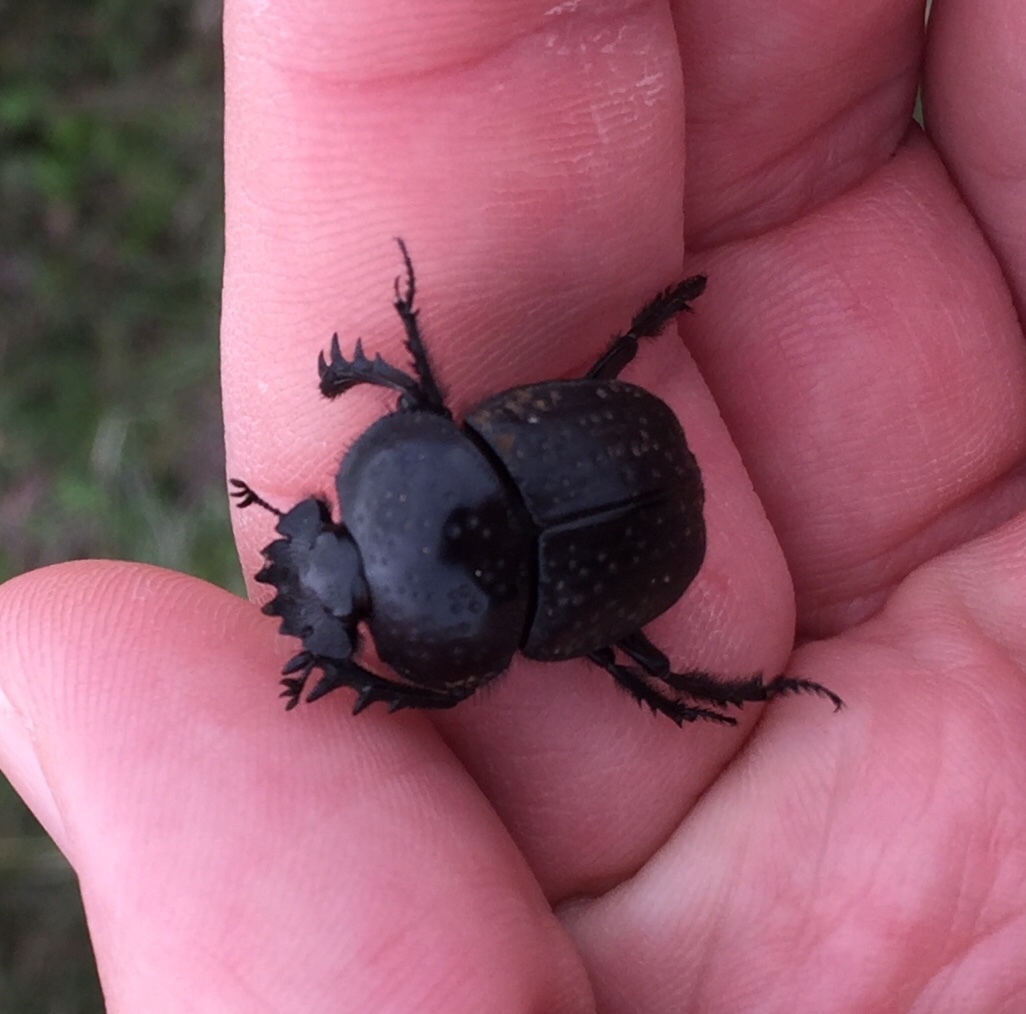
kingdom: Animalia
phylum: Arthropoda
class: Insecta
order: Coleoptera
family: Scarabaeidae
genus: Ateuchetus
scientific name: Ateuchetus
